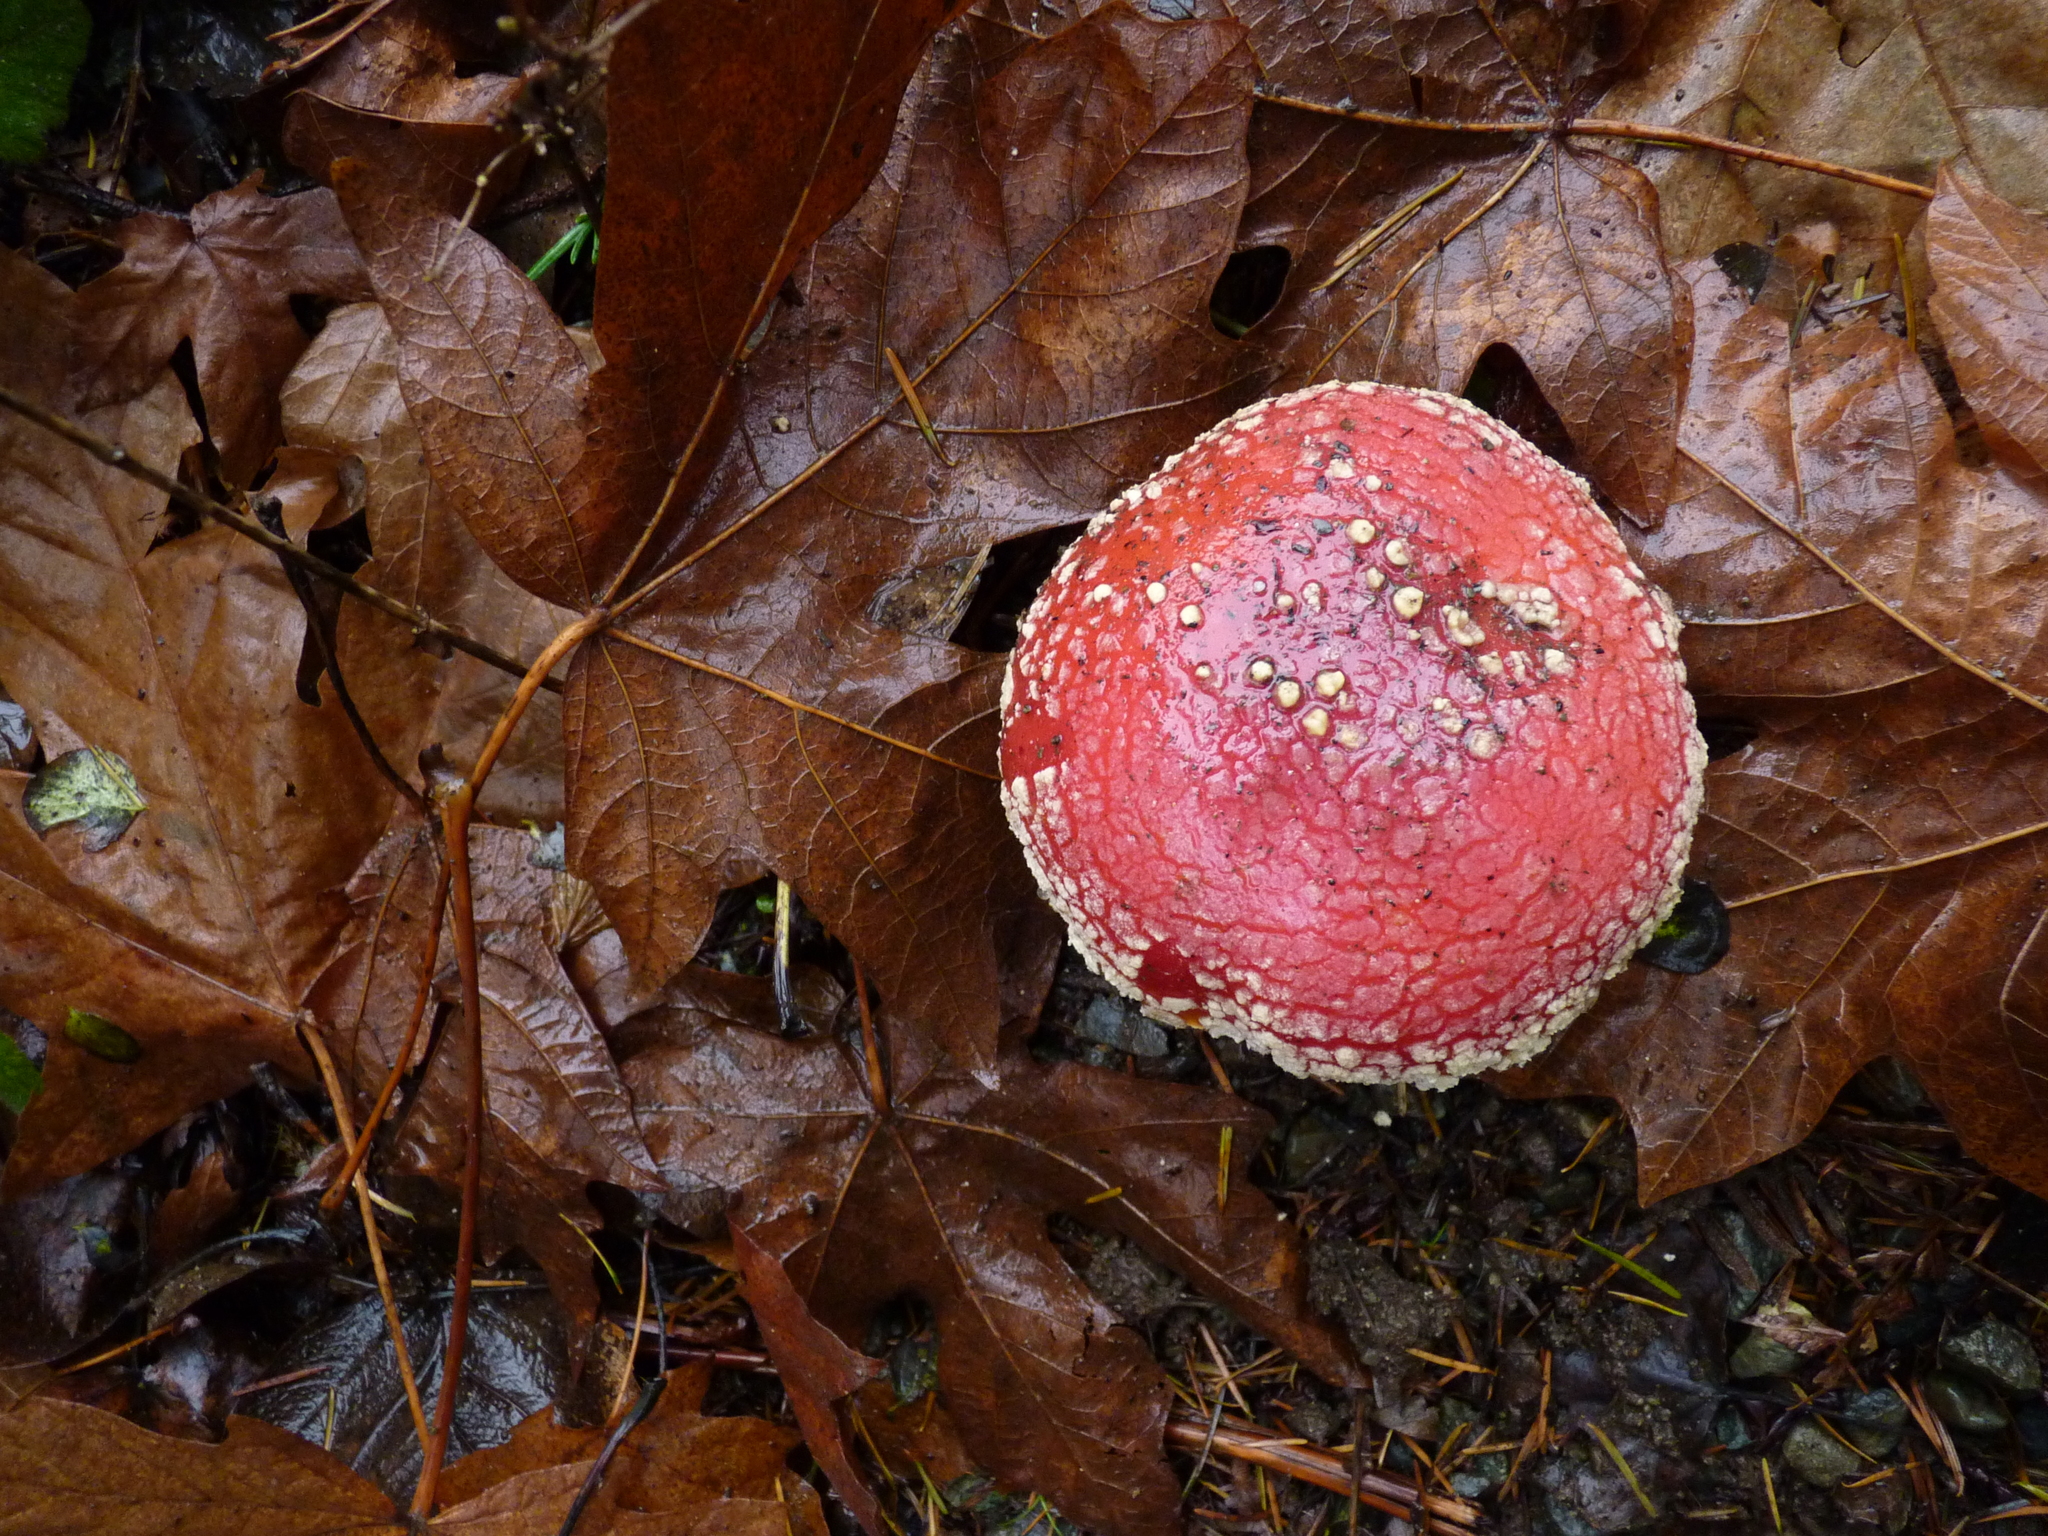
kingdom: Fungi
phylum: Basidiomycota
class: Agaricomycetes
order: Agaricales
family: Amanitaceae
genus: Amanita
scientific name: Amanita muscaria
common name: Fly agaric
